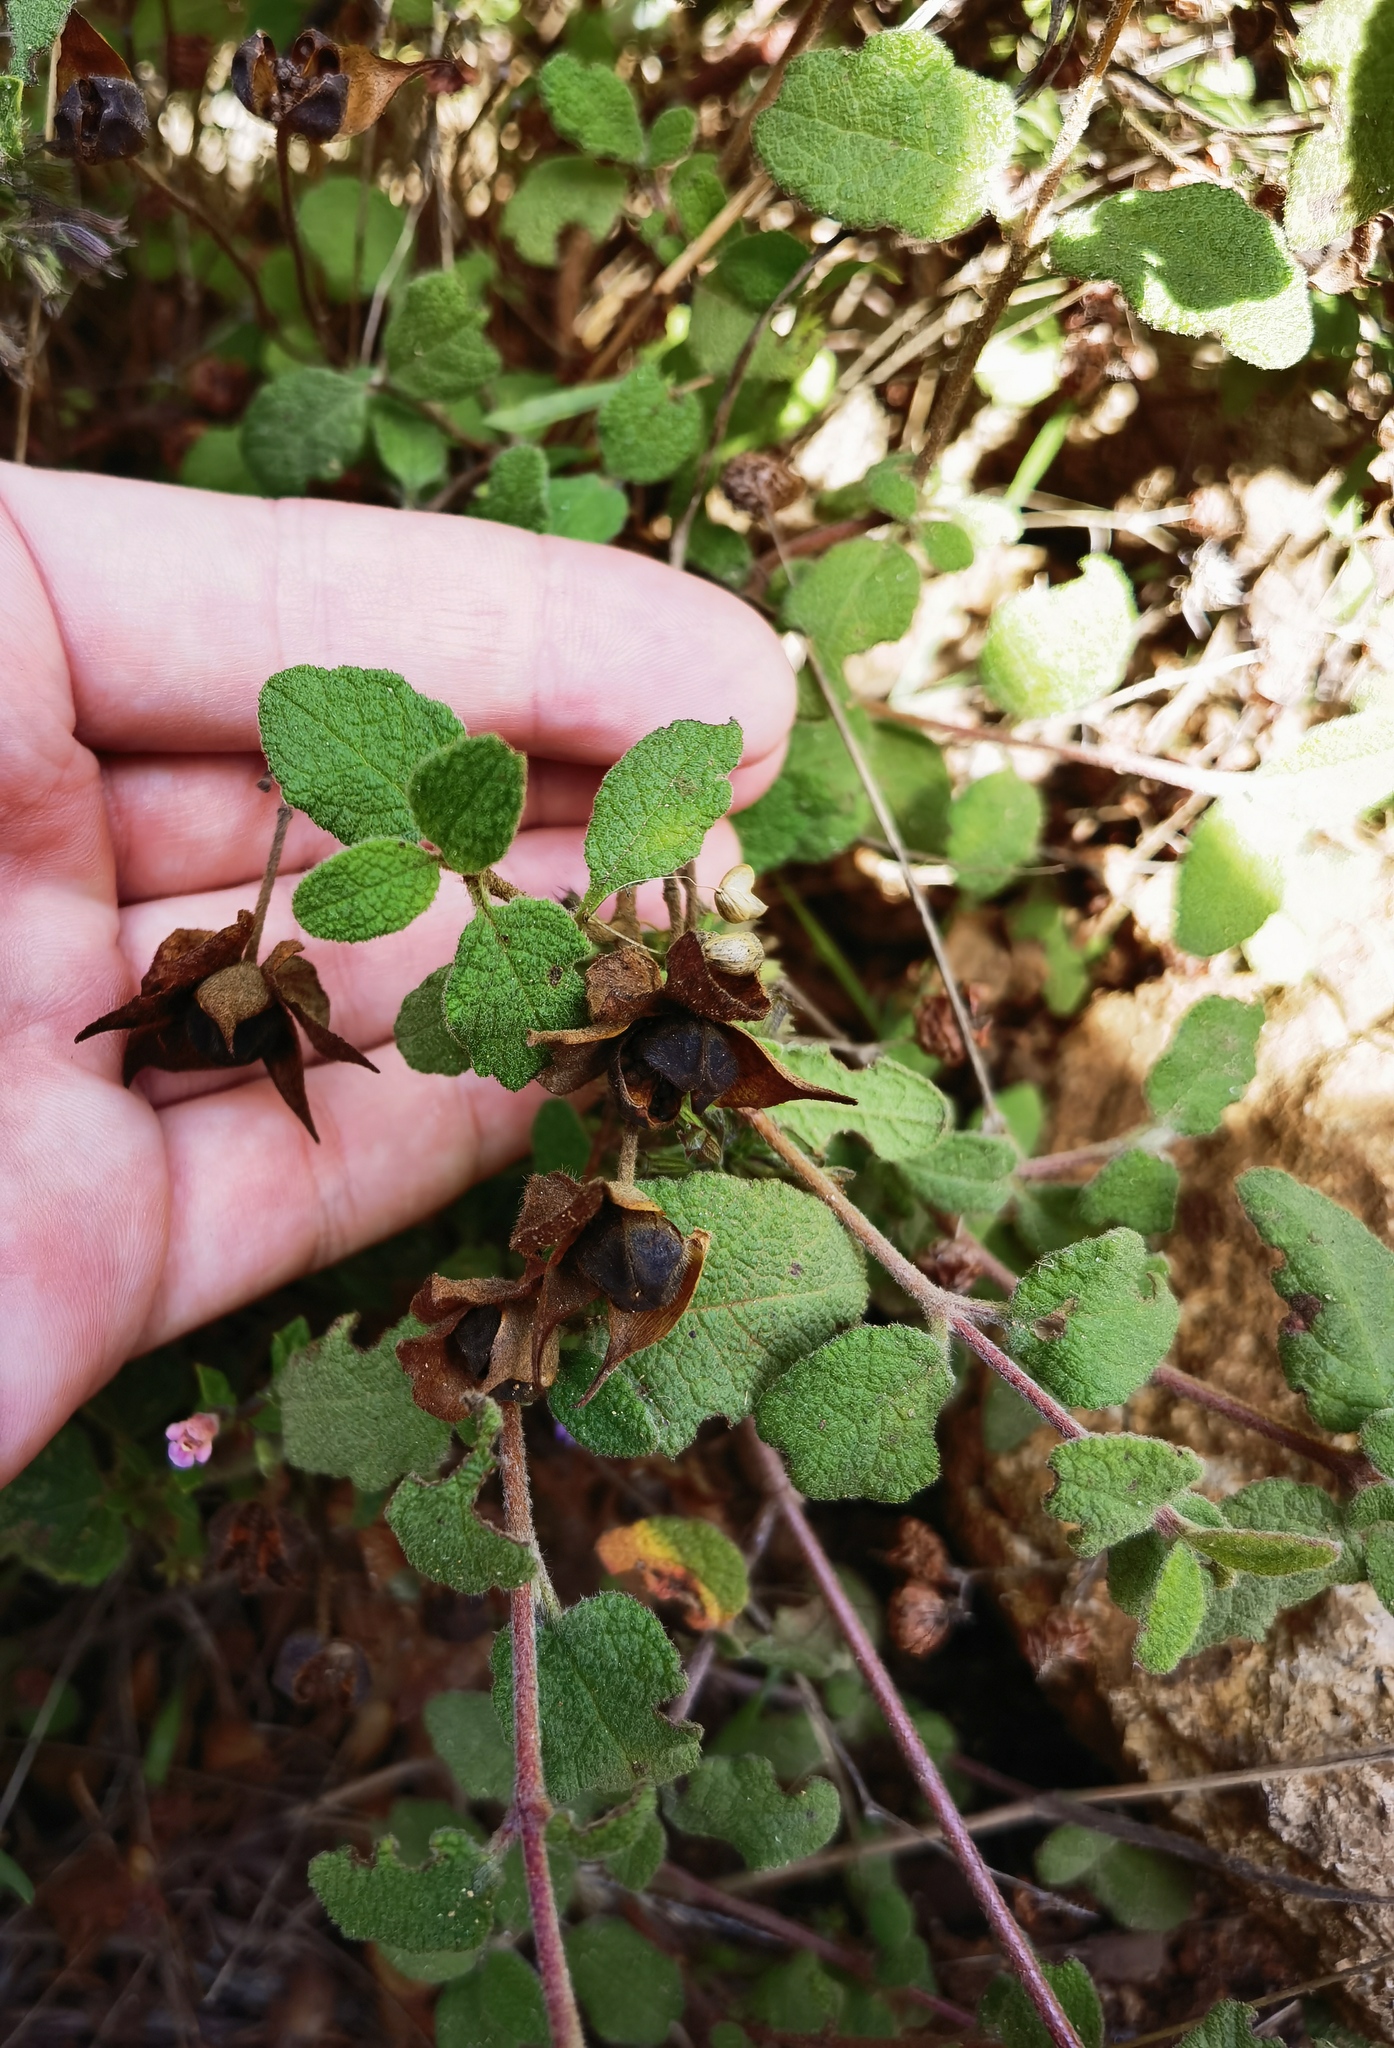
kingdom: Plantae
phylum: Tracheophyta
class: Magnoliopsida
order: Malvales
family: Cistaceae
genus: Cistus
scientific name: Cistus salviifolius
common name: Salvia cistus
